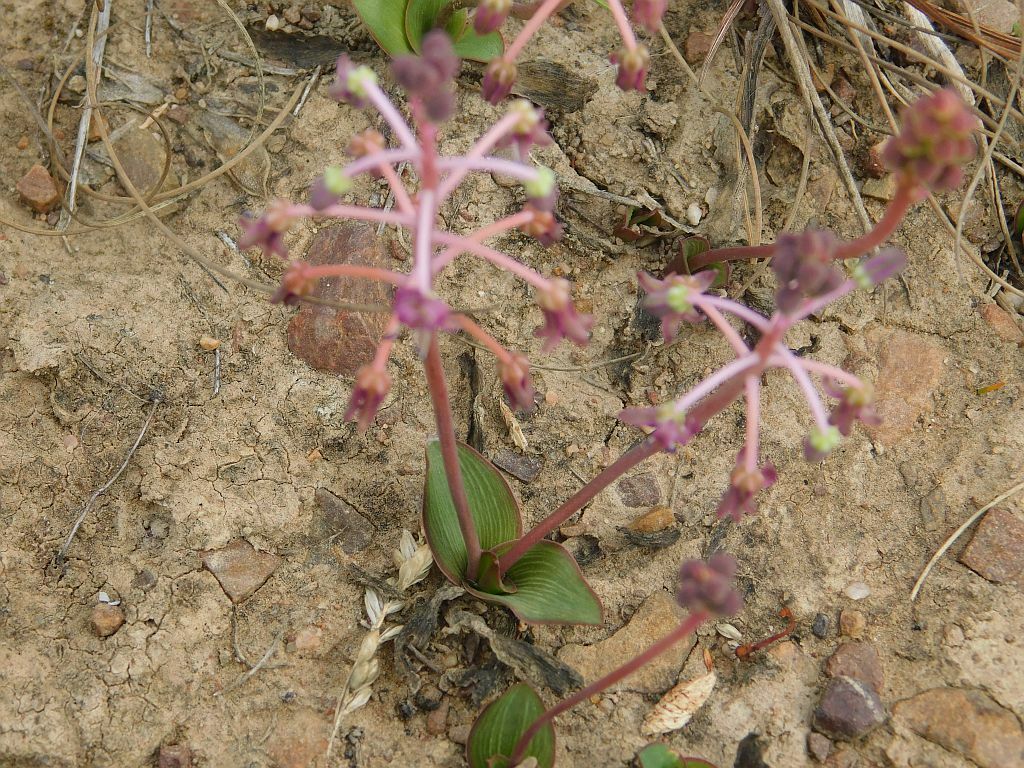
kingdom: Plantae
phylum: Tracheophyta
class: Liliopsida
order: Asparagales
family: Asparagaceae
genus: Ledebouria
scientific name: Ledebouria ovalifolia
